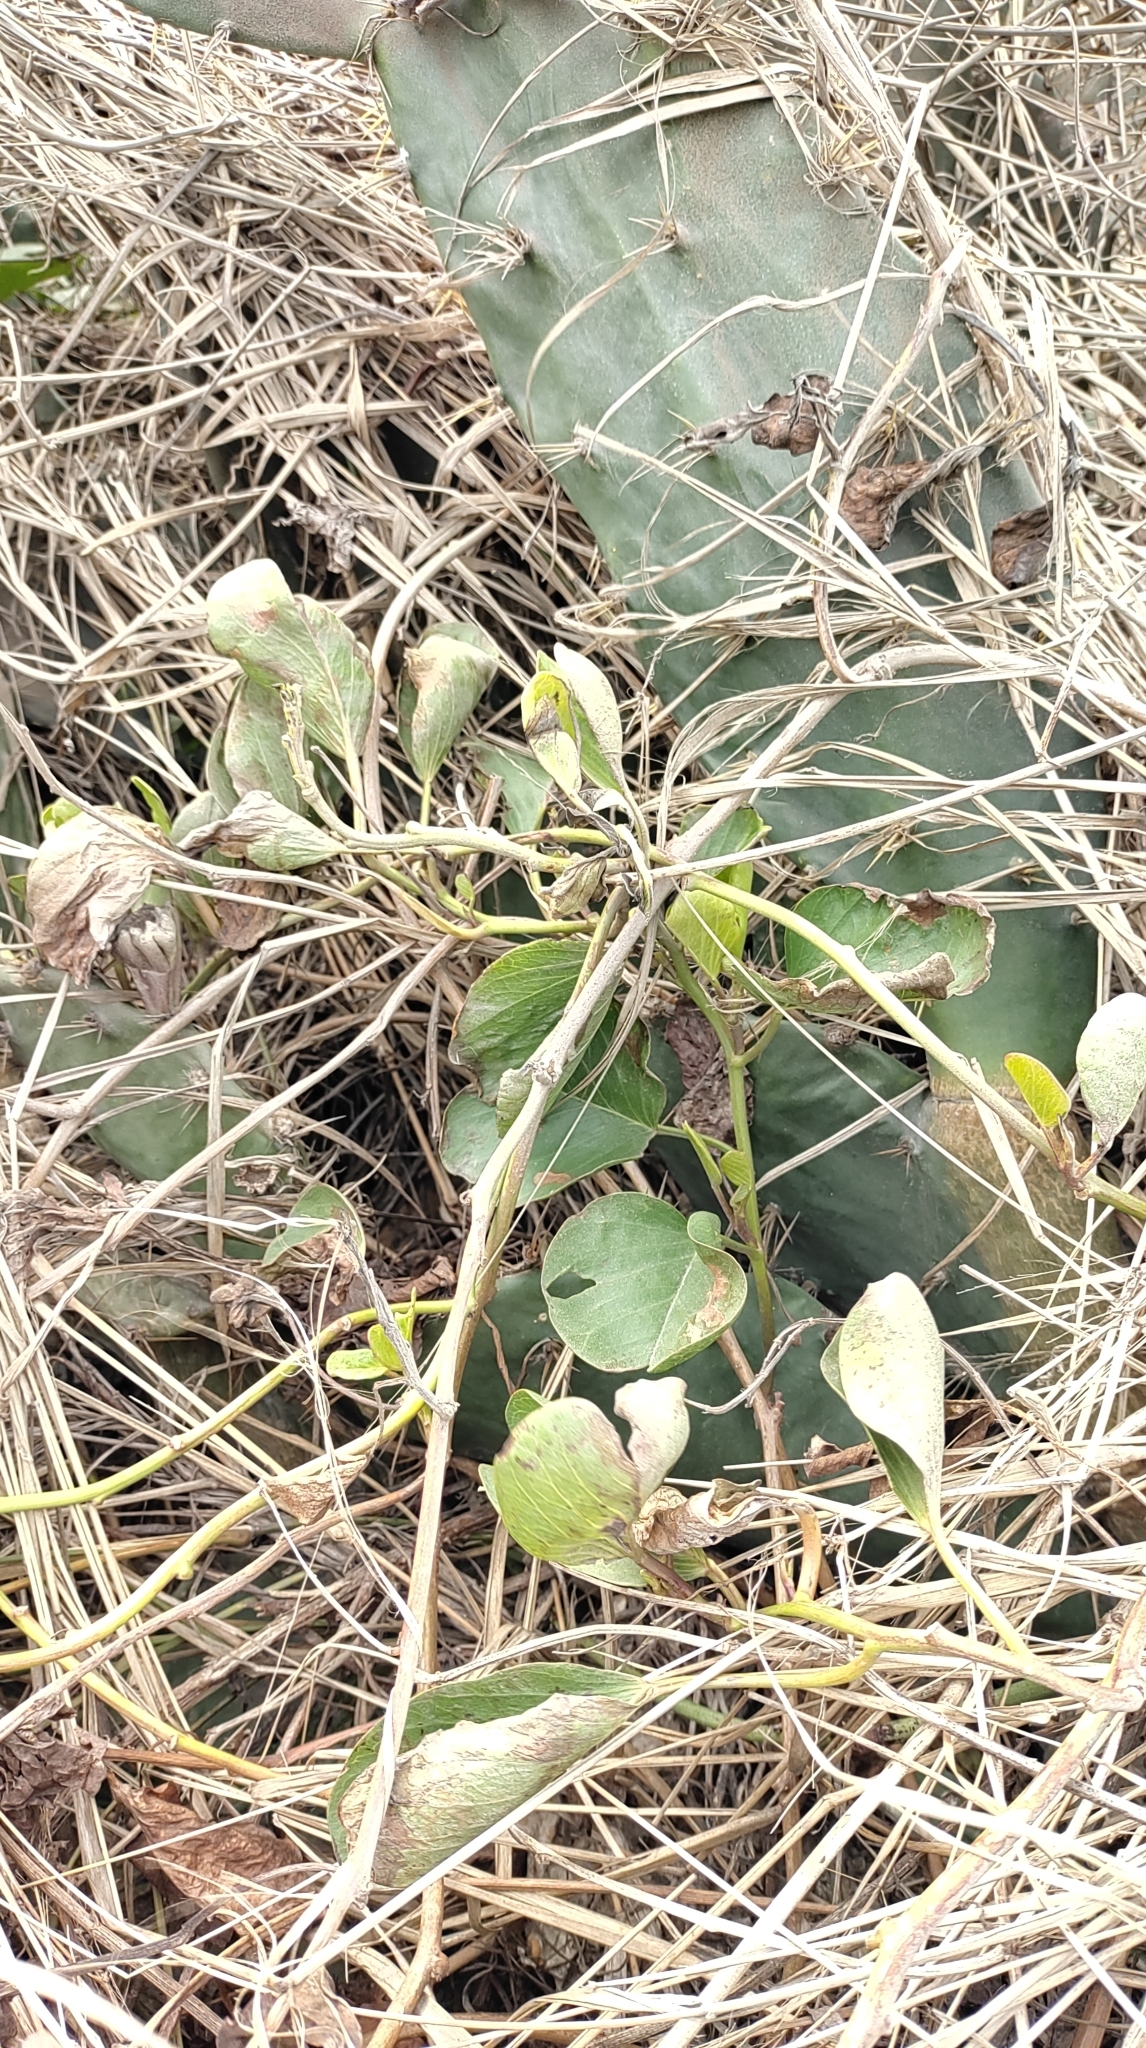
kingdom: Plantae
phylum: Tracheophyta
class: Magnoliopsida
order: Solanales
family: Convolvulaceae
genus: Ipomoea
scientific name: Ipomoea pes-caprae
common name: Beach morning glory
